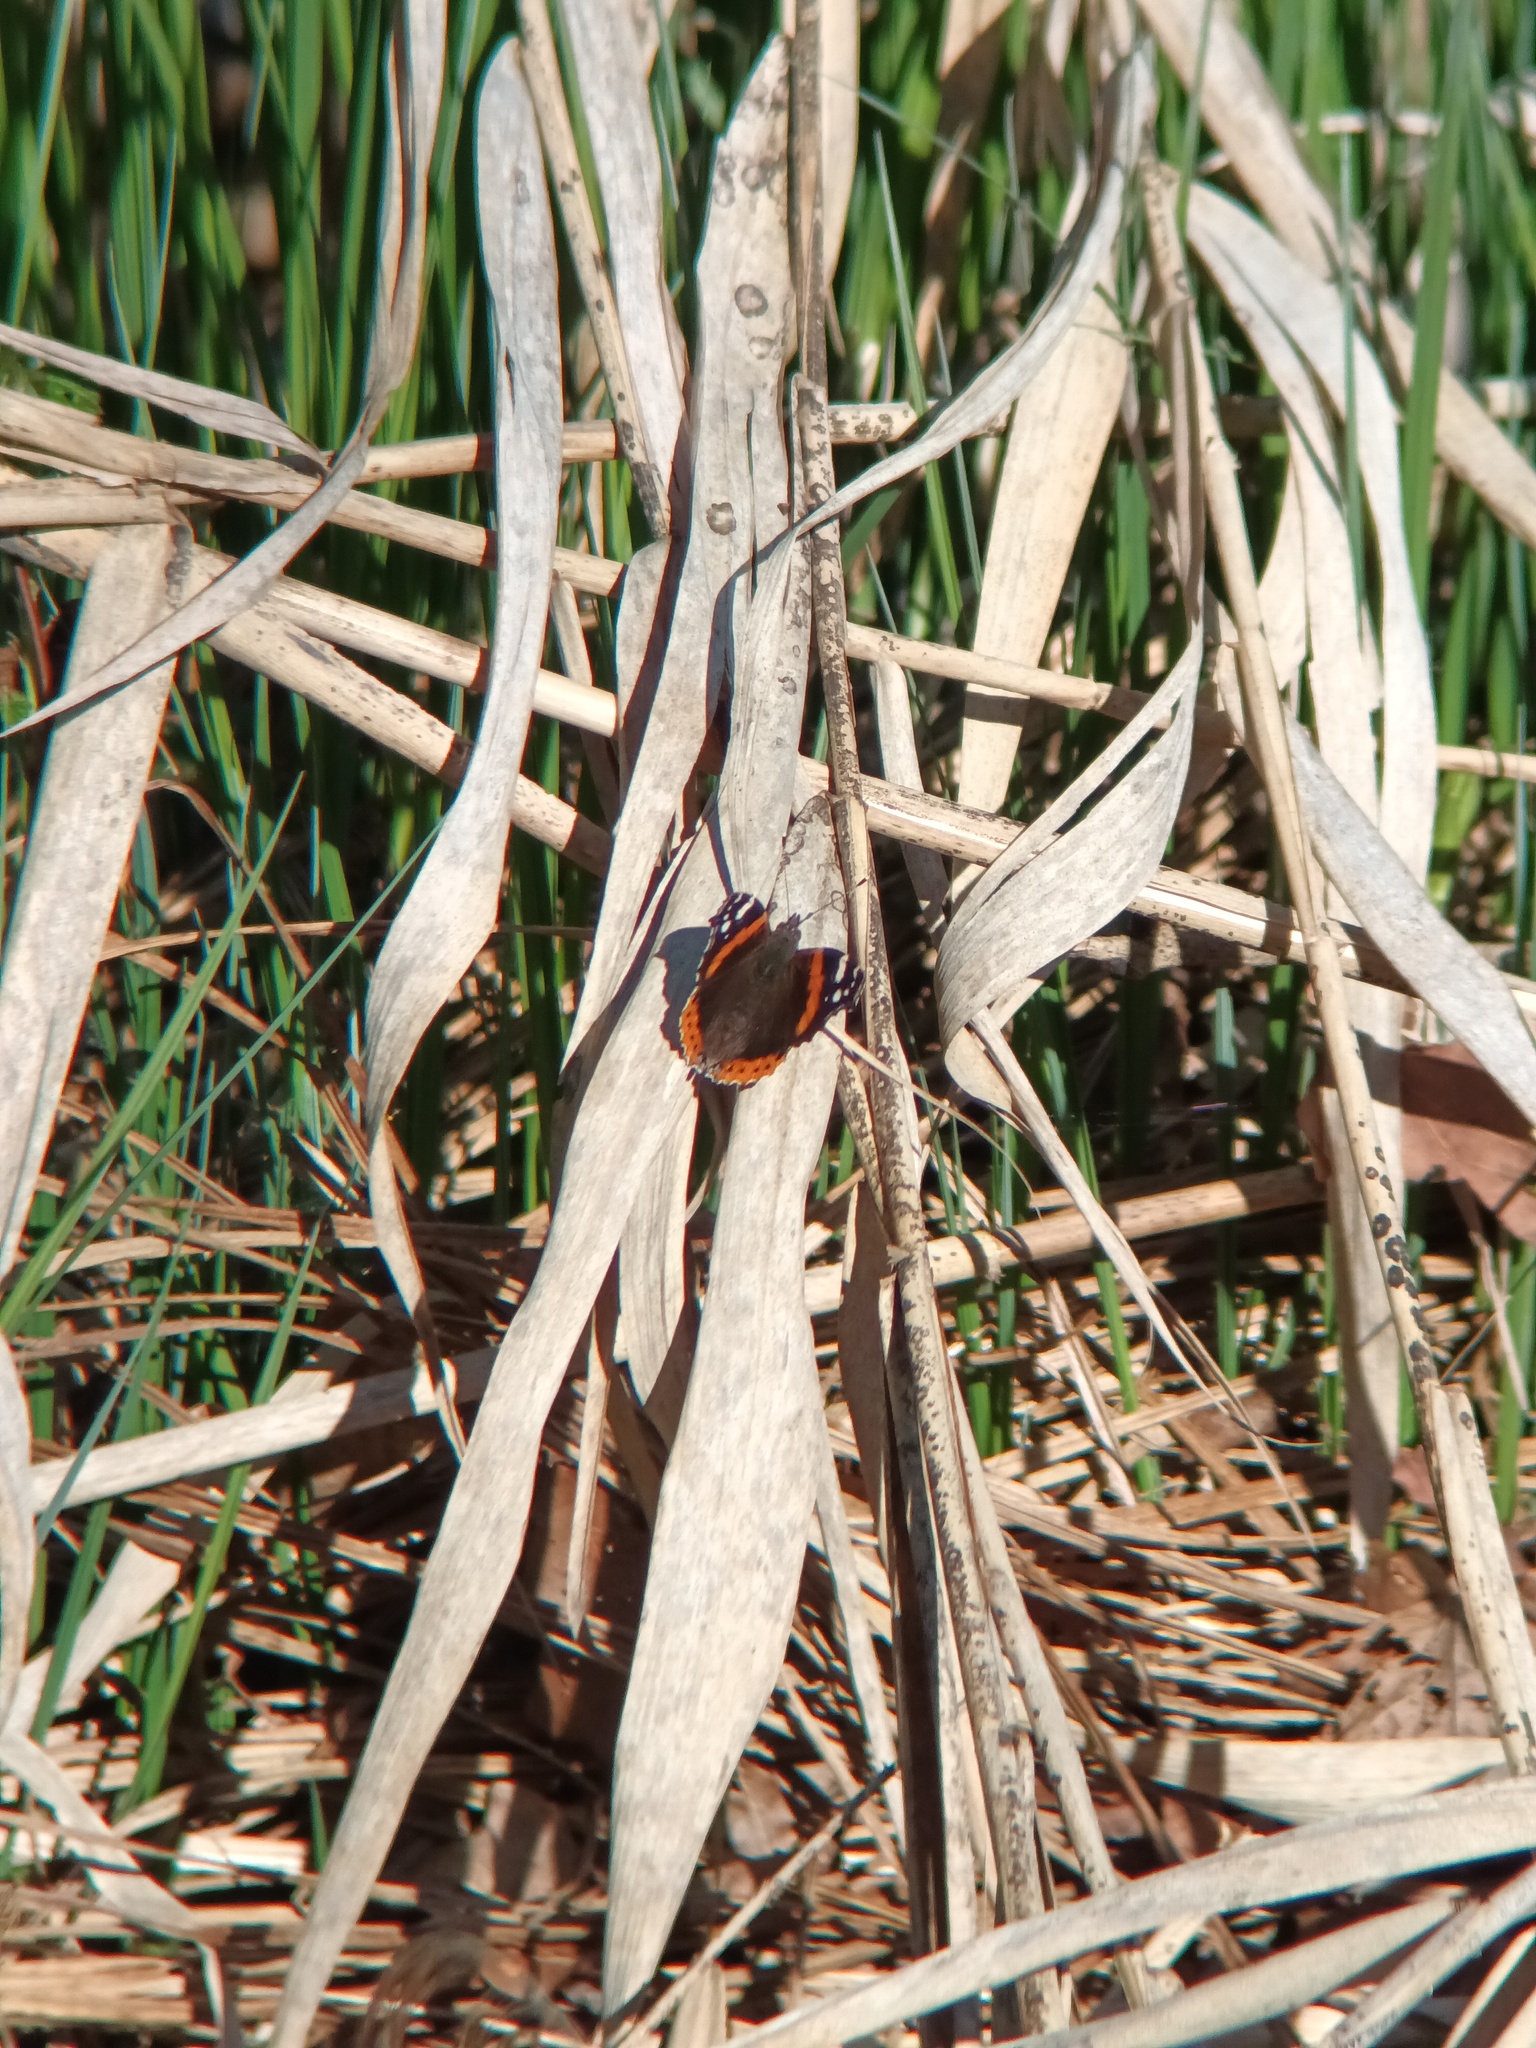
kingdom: Animalia
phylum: Arthropoda
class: Insecta
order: Lepidoptera
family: Nymphalidae
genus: Vanessa
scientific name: Vanessa atalanta
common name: Red admiral
